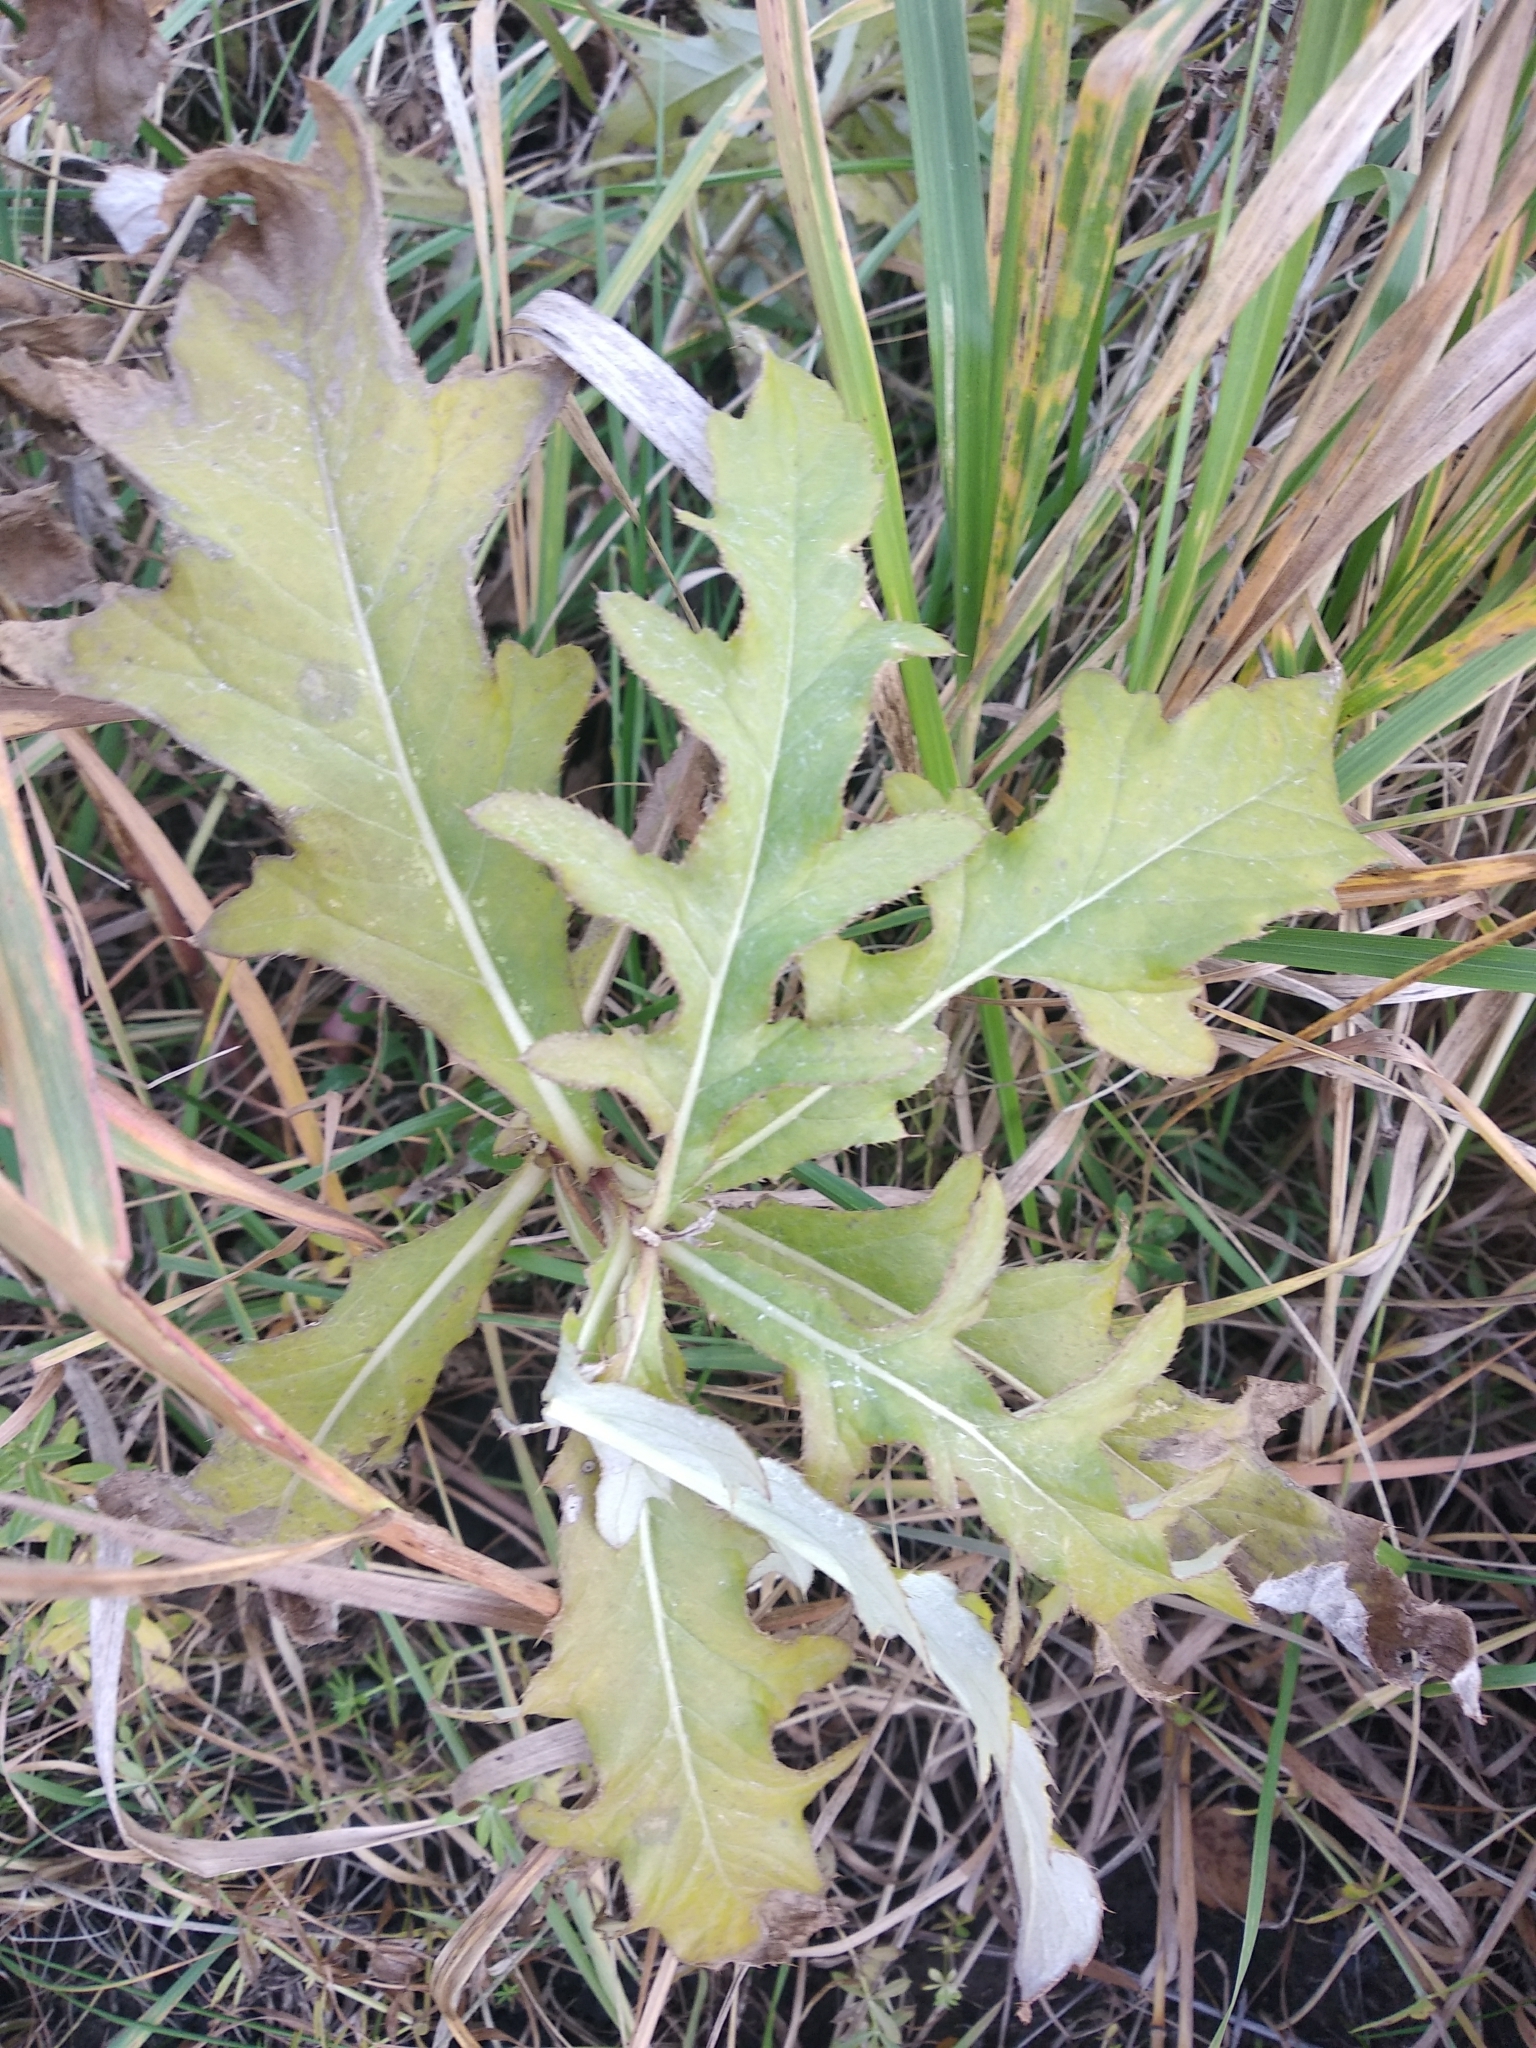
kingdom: Plantae
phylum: Tracheophyta
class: Magnoliopsida
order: Asterales
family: Asteraceae
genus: Cirsium
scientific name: Cirsium arvense
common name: Creeping thistle
